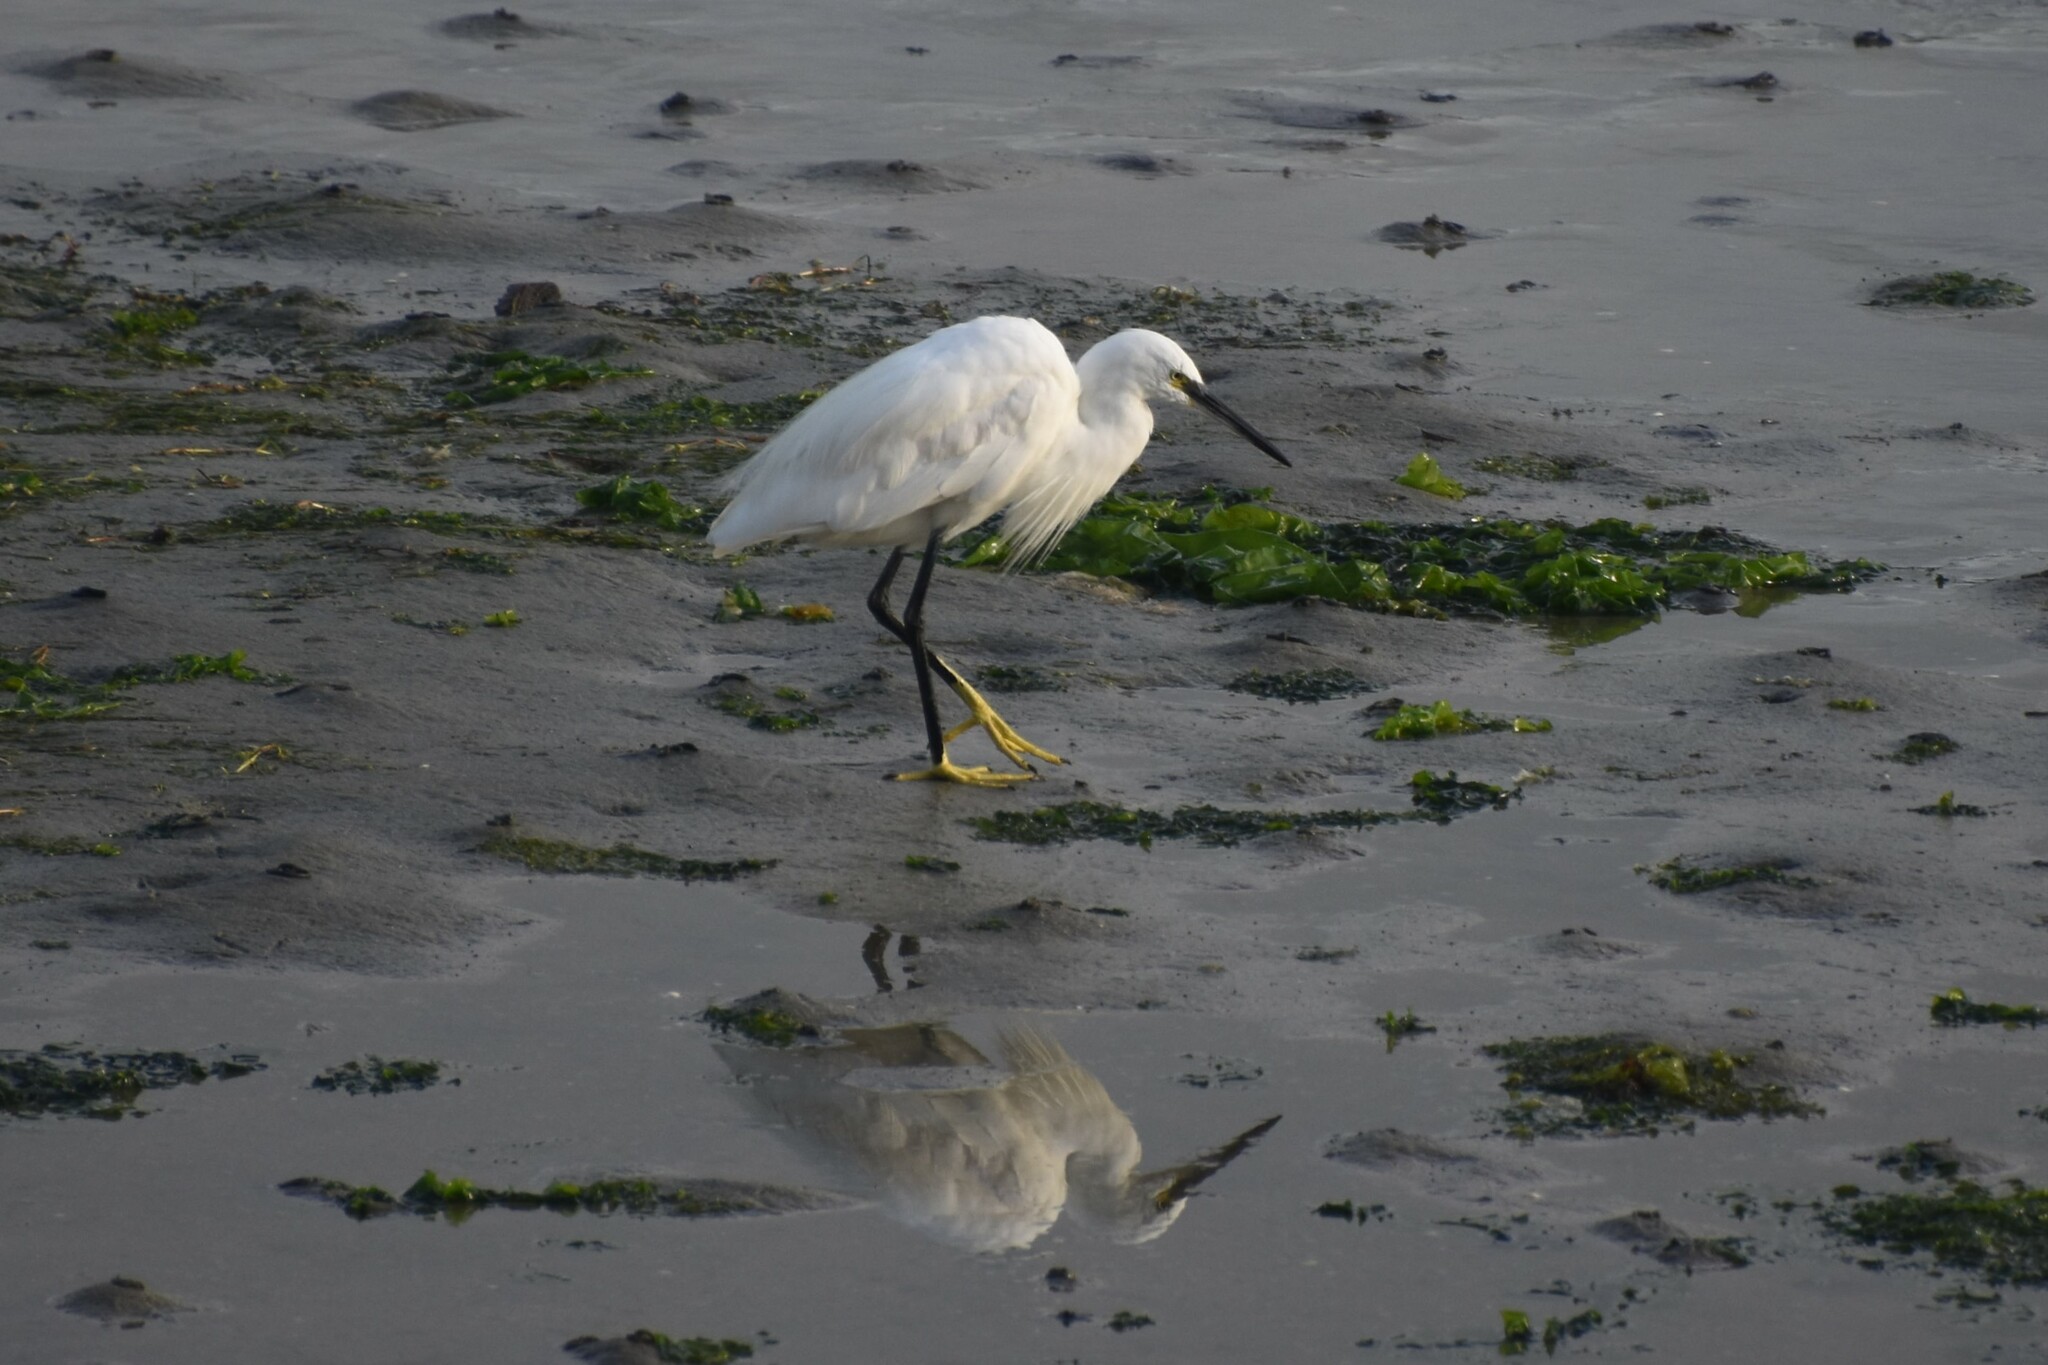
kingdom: Animalia
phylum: Chordata
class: Aves
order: Pelecaniformes
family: Ardeidae
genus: Egretta
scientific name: Egretta garzetta
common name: Little egret
